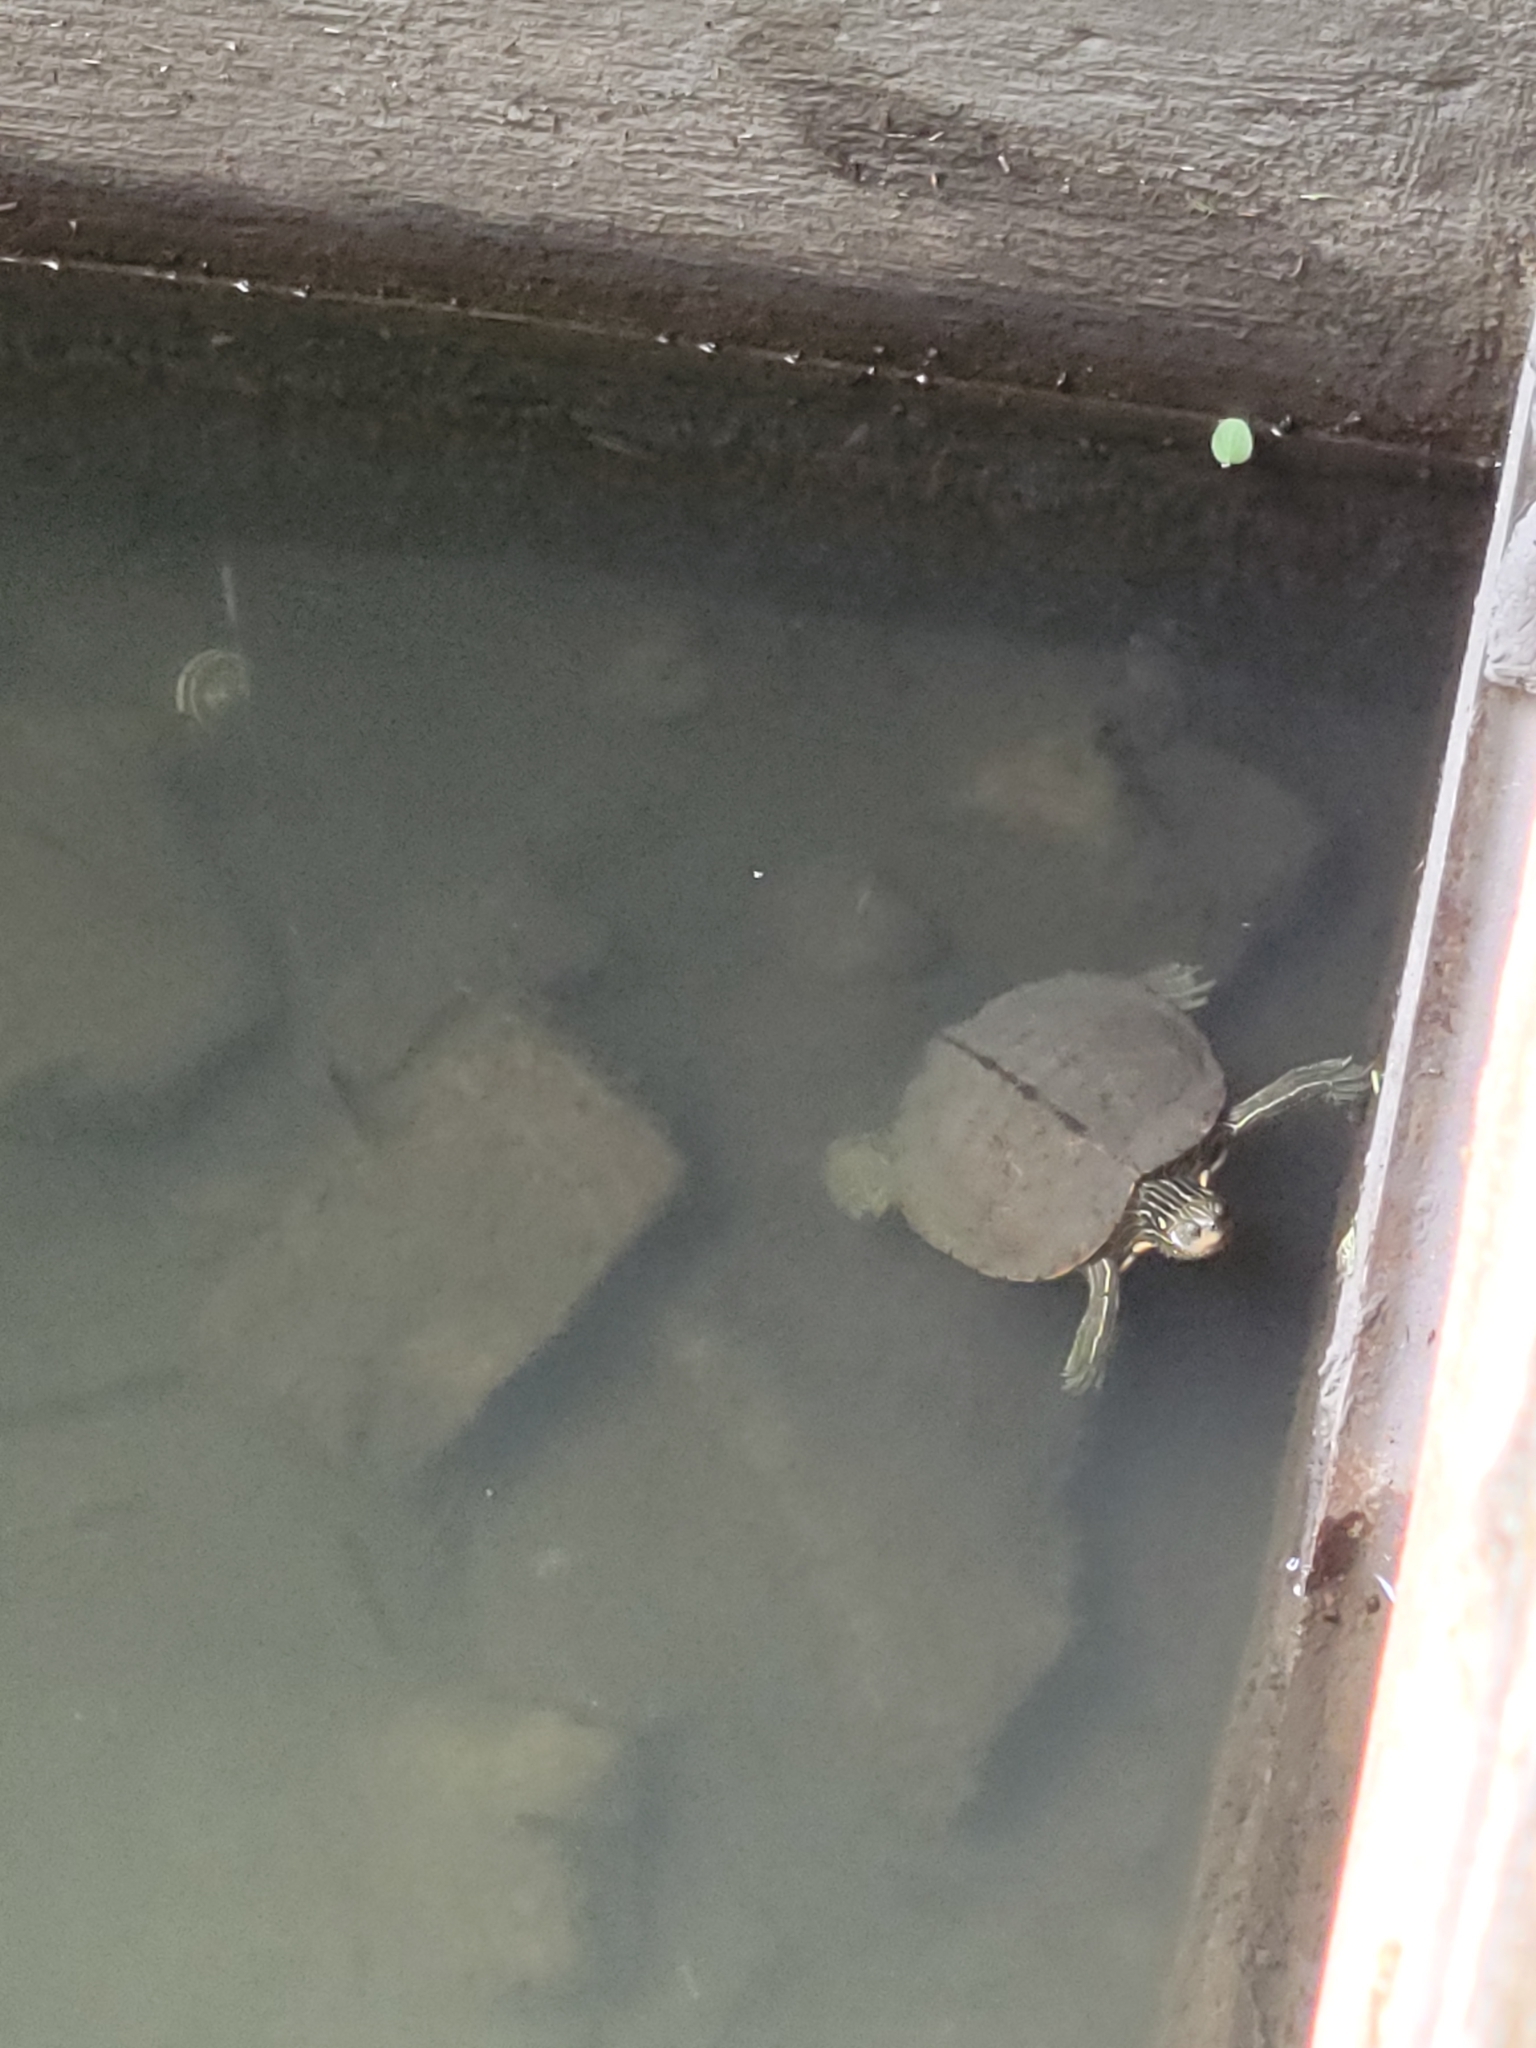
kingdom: Animalia
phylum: Chordata
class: Testudines
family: Emydidae
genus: Graptemys
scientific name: Graptemys geographica
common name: Common map turtle
